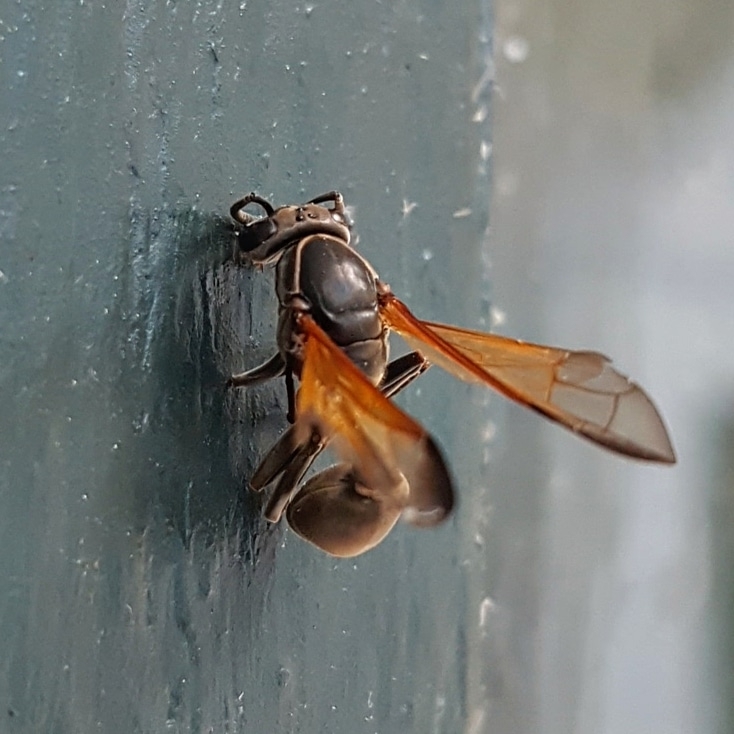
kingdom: Animalia
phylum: Arthropoda
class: Insecta
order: Hymenoptera
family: Eumenidae
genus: Polybia
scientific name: Polybia rejecta
